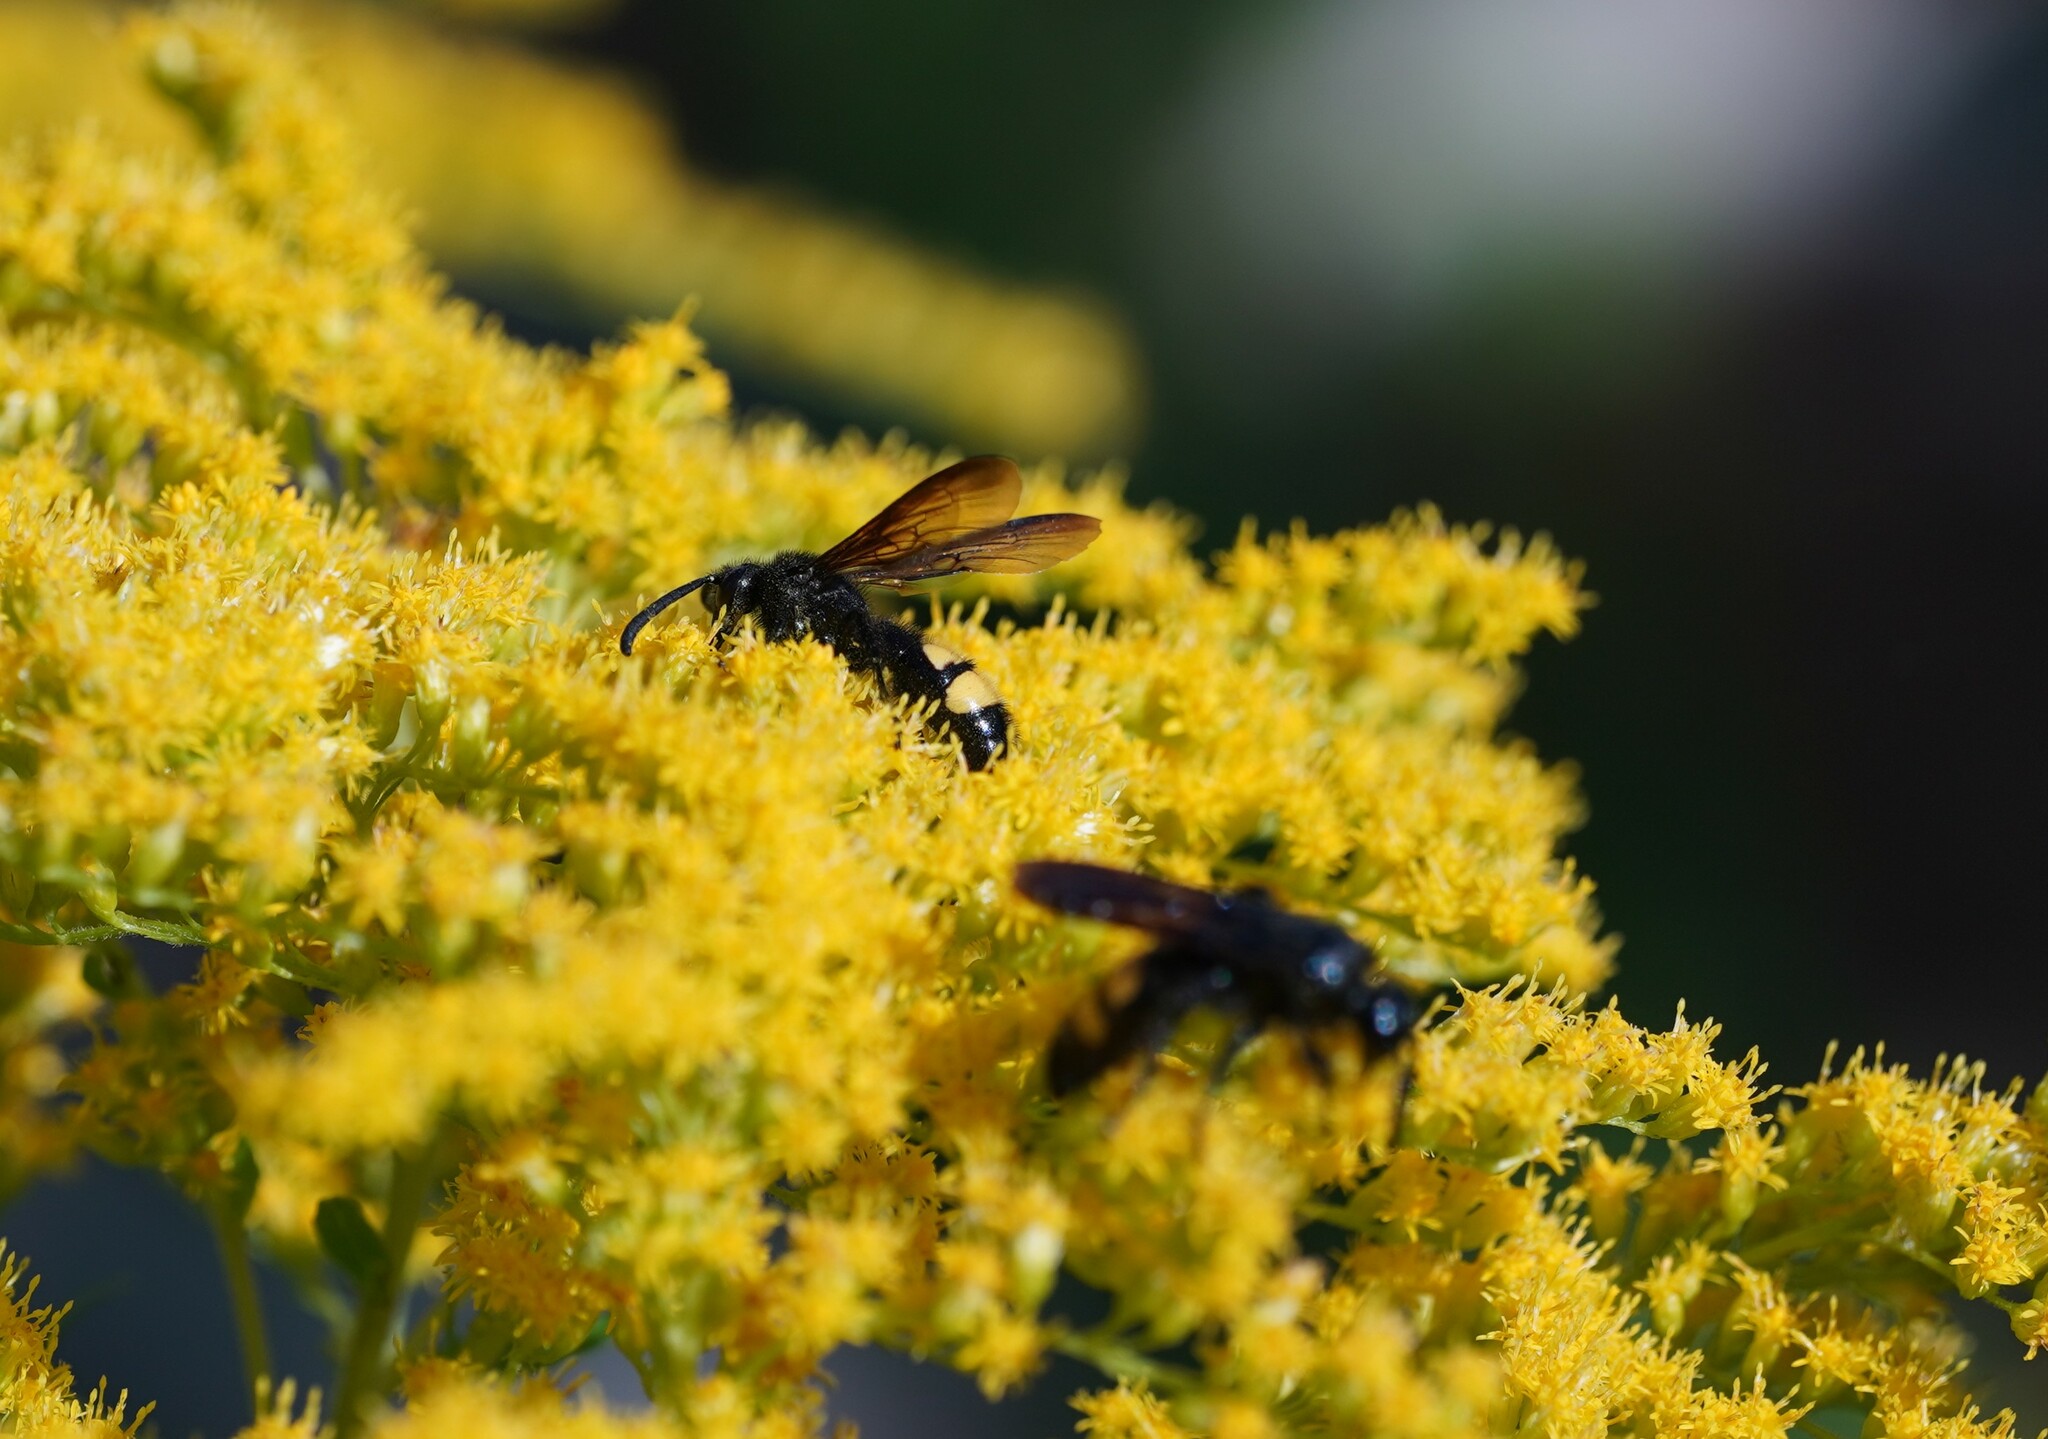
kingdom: Animalia
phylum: Arthropoda
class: Insecta
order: Hymenoptera
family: Scoliidae
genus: Scolia
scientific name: Scolia hirta
